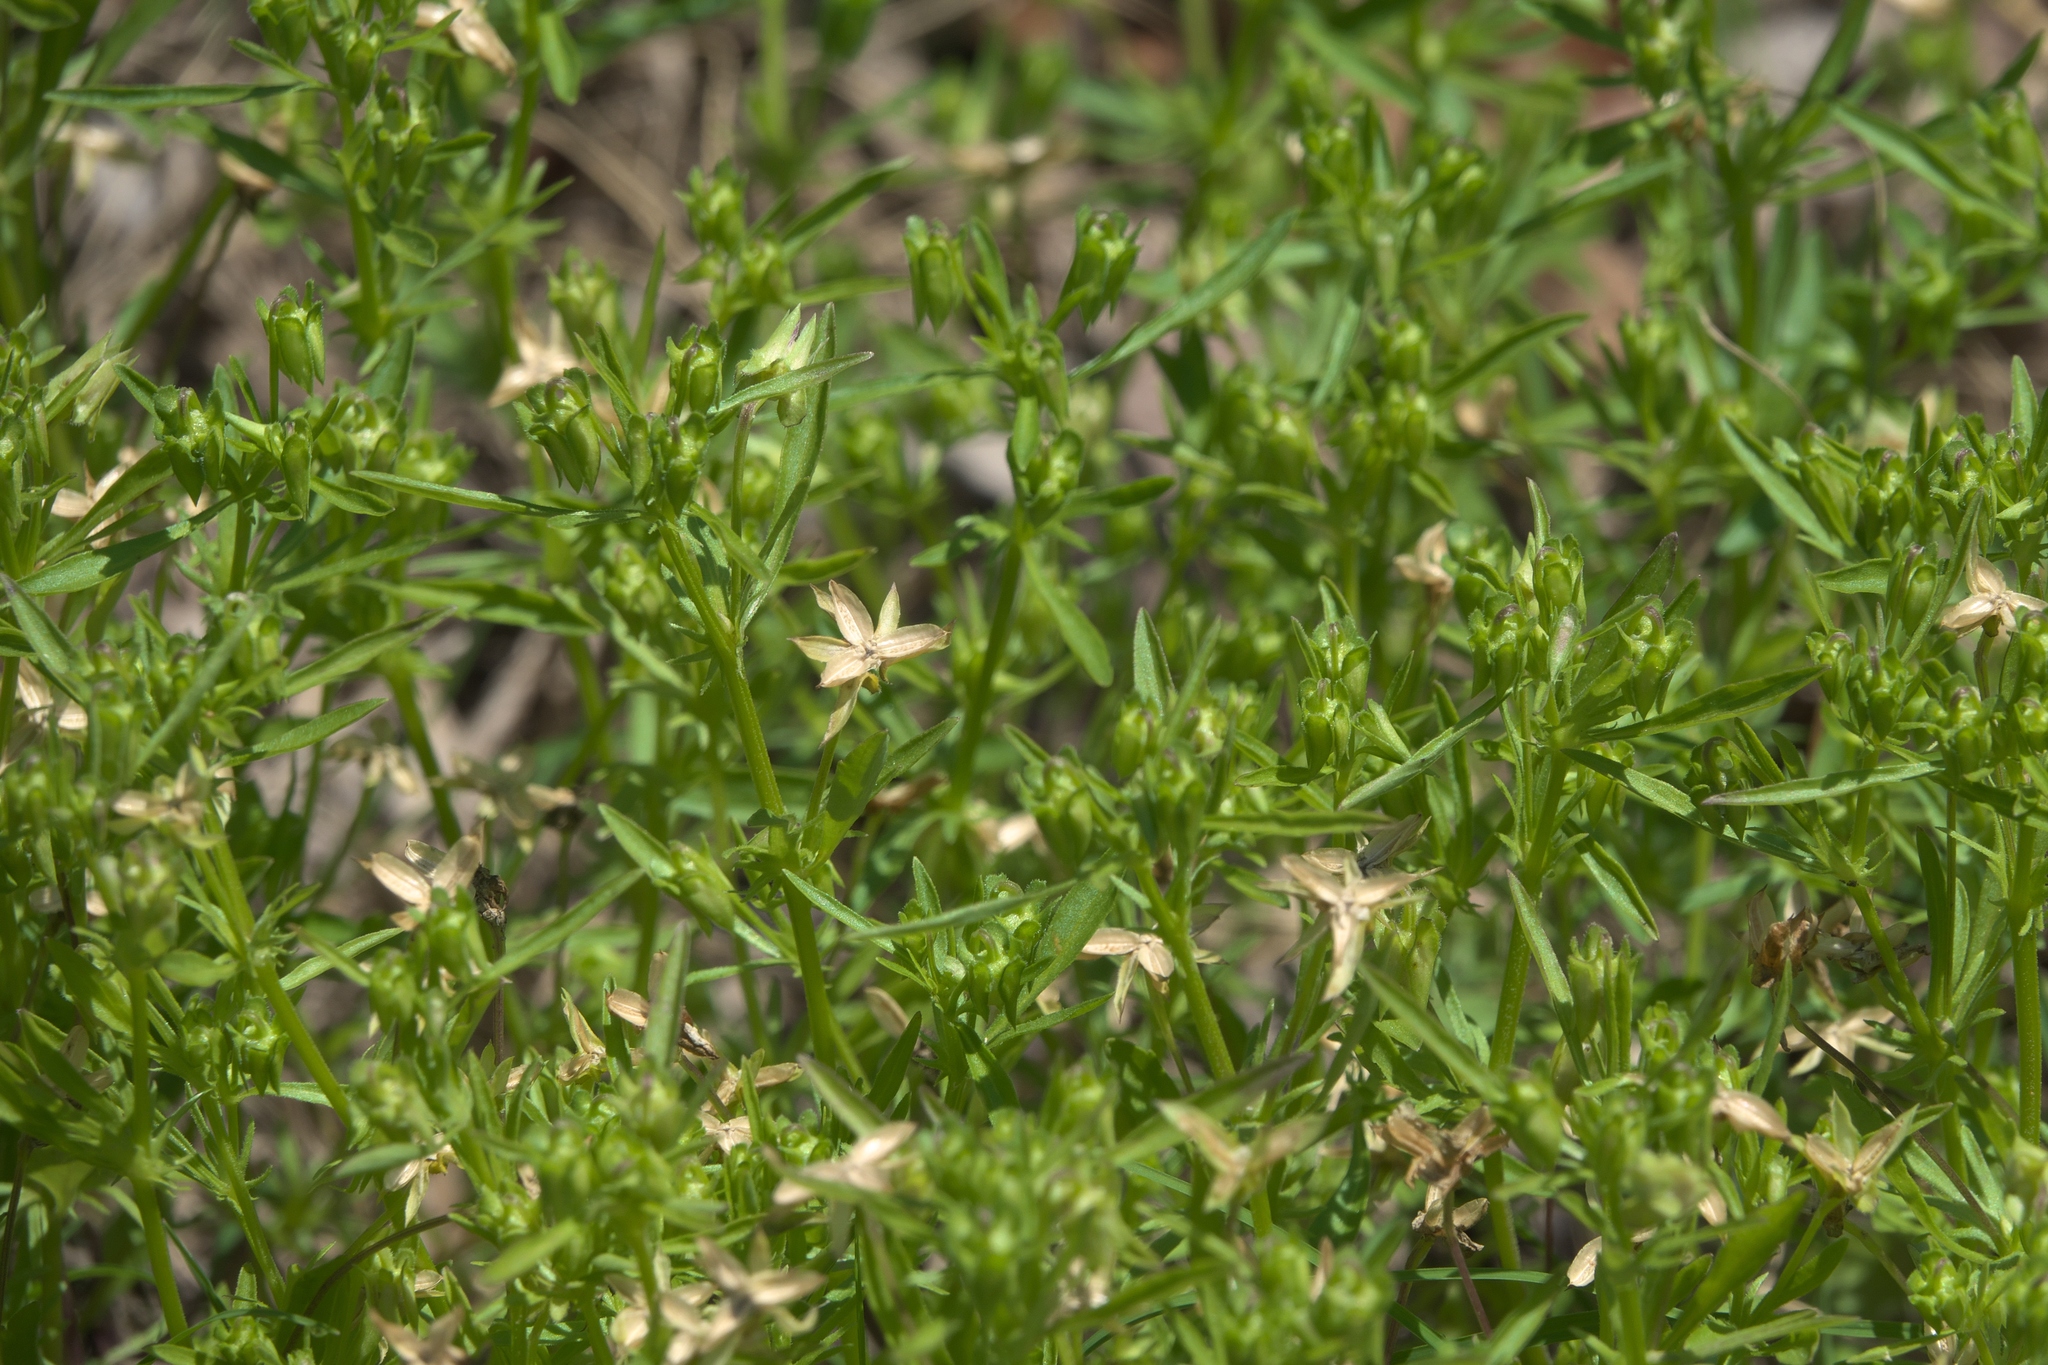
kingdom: Plantae
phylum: Tracheophyta
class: Magnoliopsida
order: Malpighiales
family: Violaceae
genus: Viola
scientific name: Viola rafinesquei
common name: American field pansy
